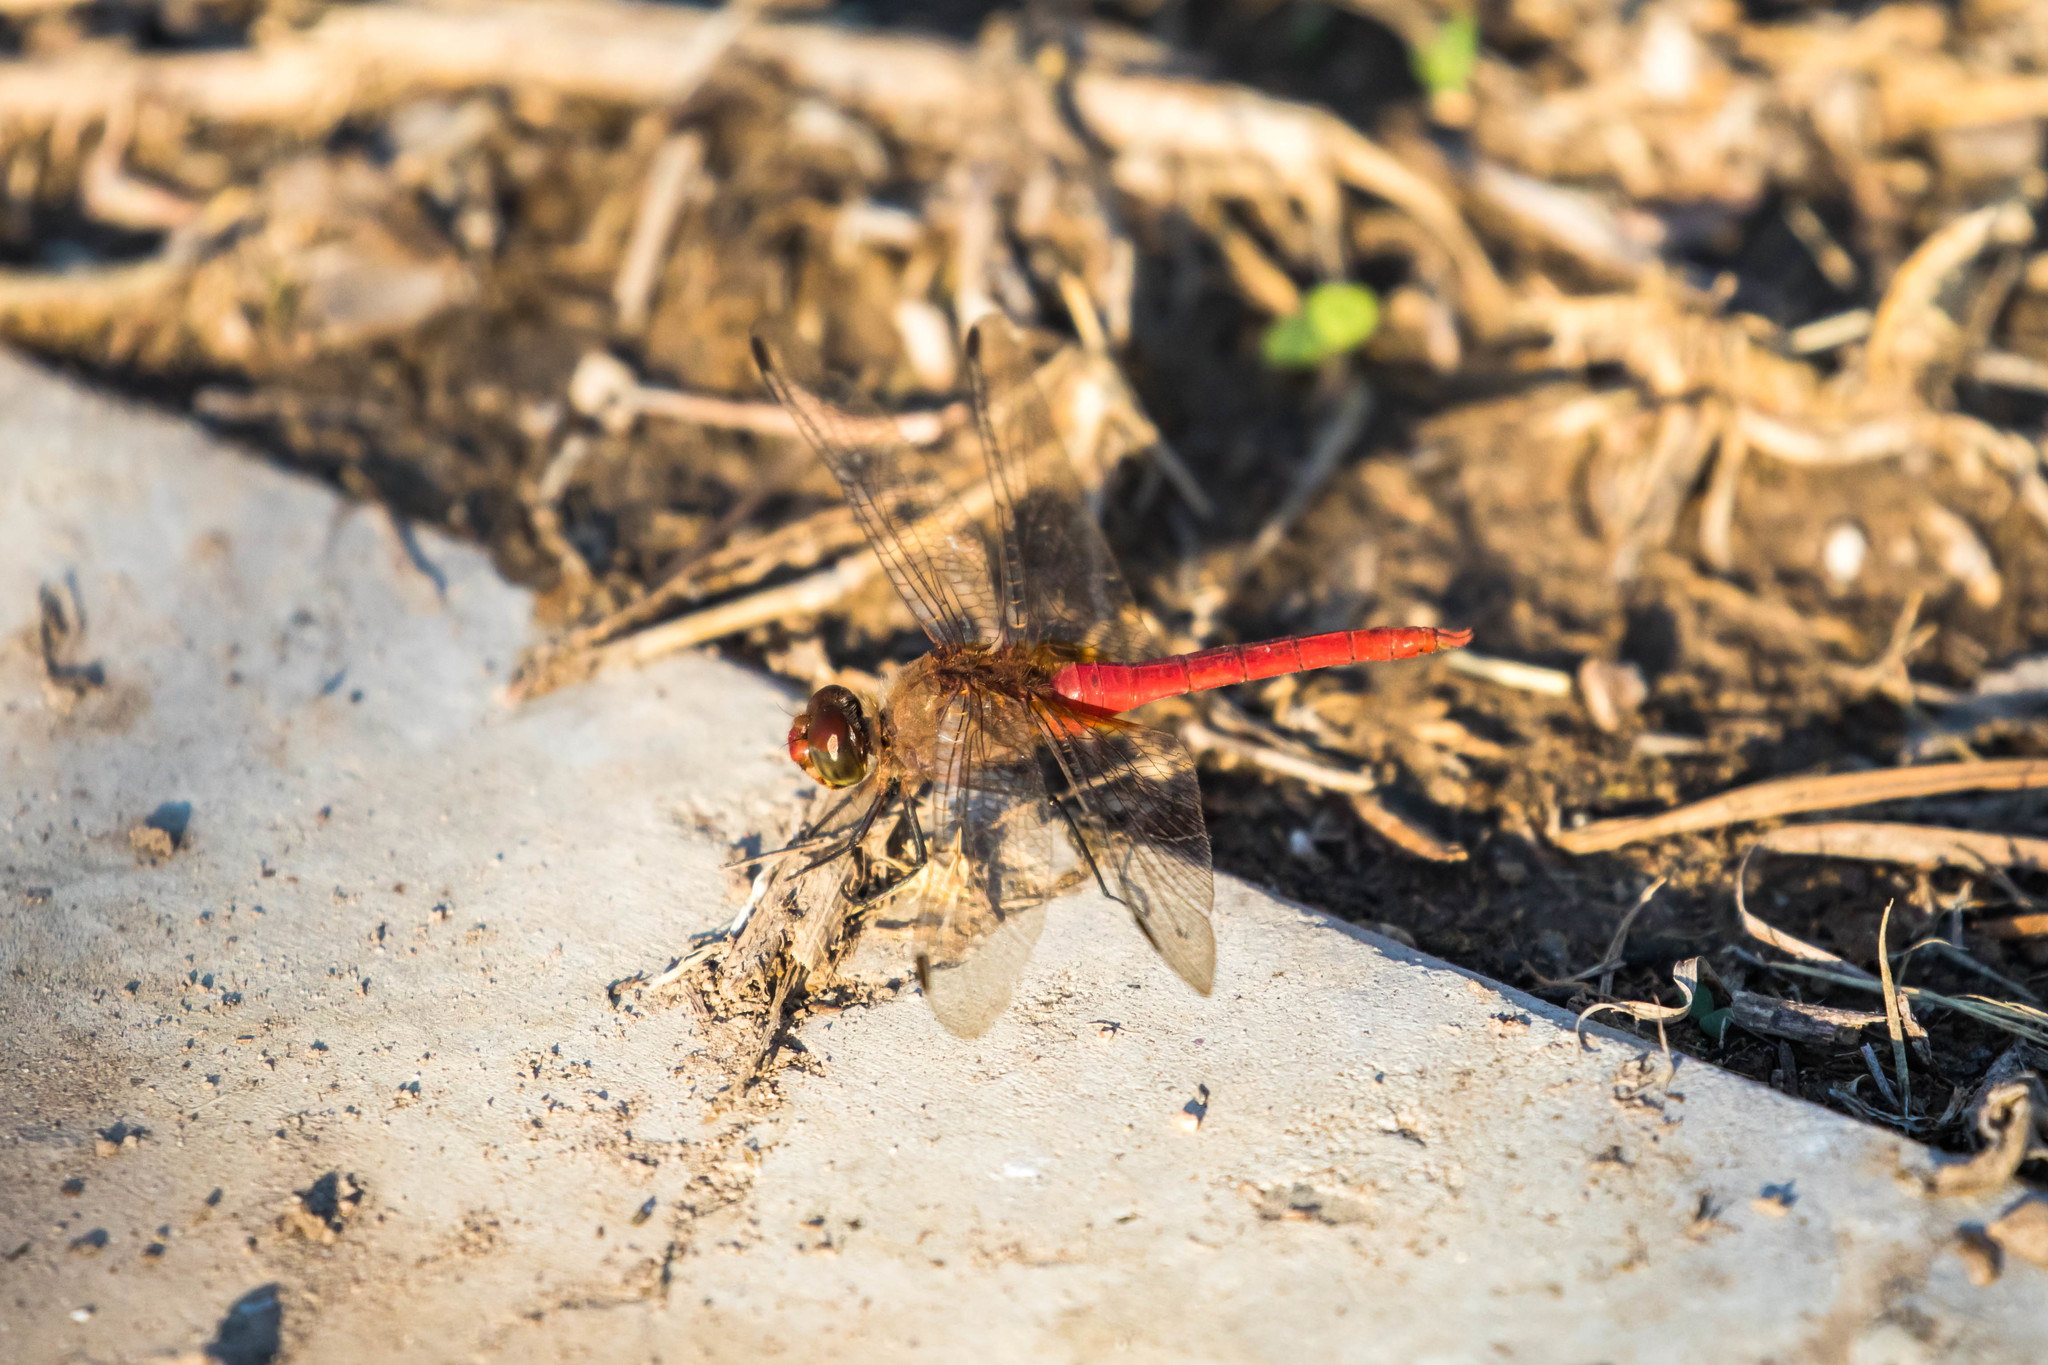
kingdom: Animalia
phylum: Arthropoda
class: Insecta
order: Odonata
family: Libellulidae
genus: Brachymesia
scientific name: Brachymesia furcata
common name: Red-taled pennant
